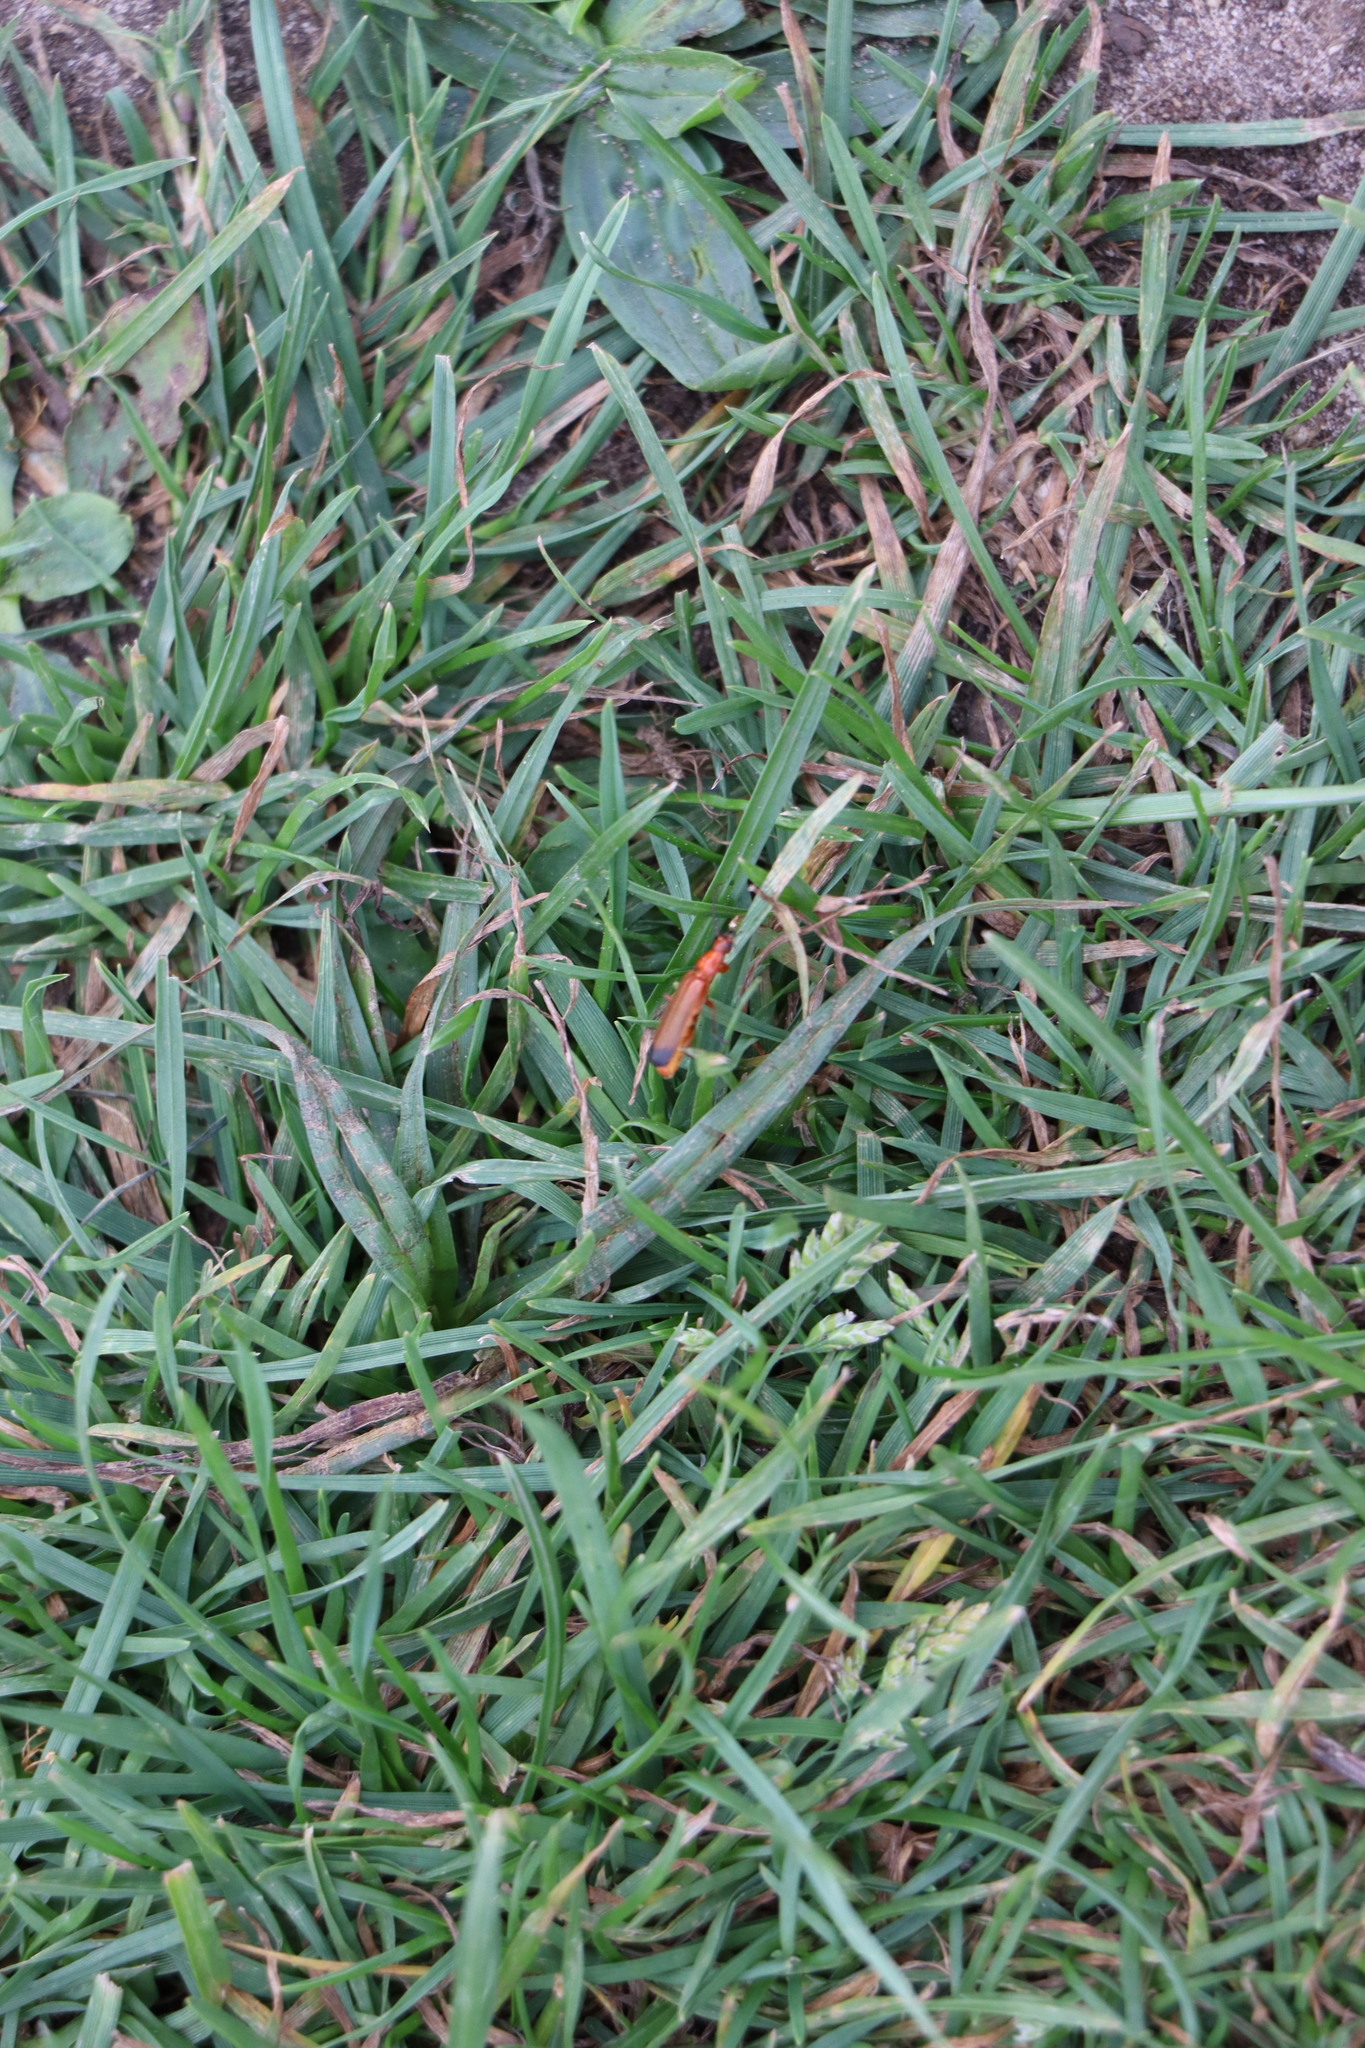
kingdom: Animalia
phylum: Arthropoda
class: Insecta
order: Coleoptera
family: Cantharidae
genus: Rhagonycha
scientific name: Rhagonycha fulva
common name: Common red soldier beetle
